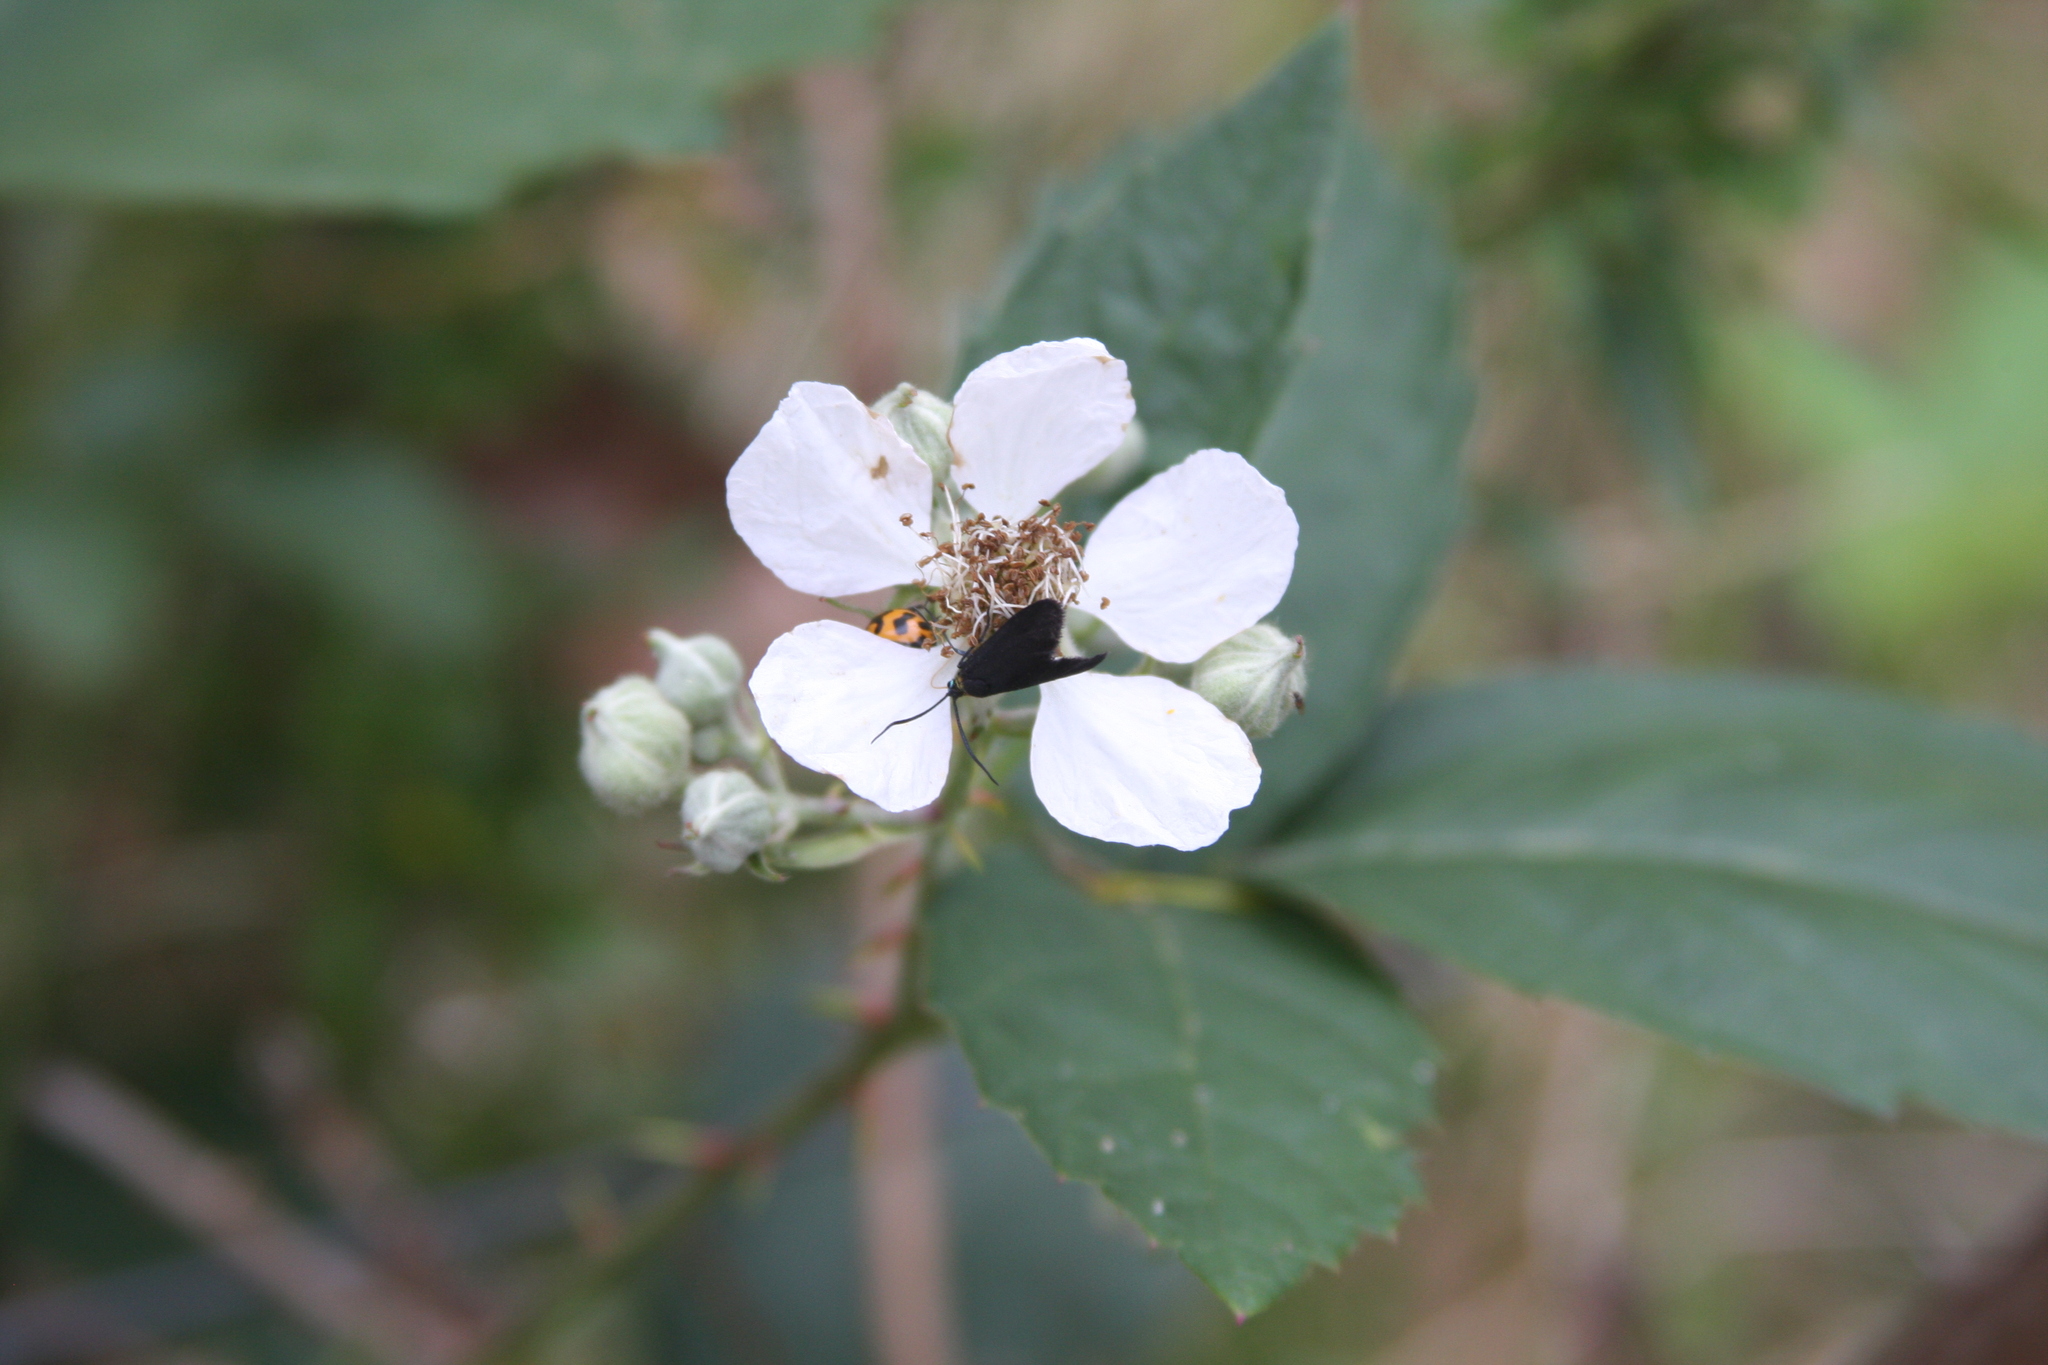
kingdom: Animalia
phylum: Arthropoda
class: Insecta
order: Coleoptera
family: Coccinellidae
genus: Coccinella
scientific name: Coccinella transversalis
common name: Transverse lady beetle
